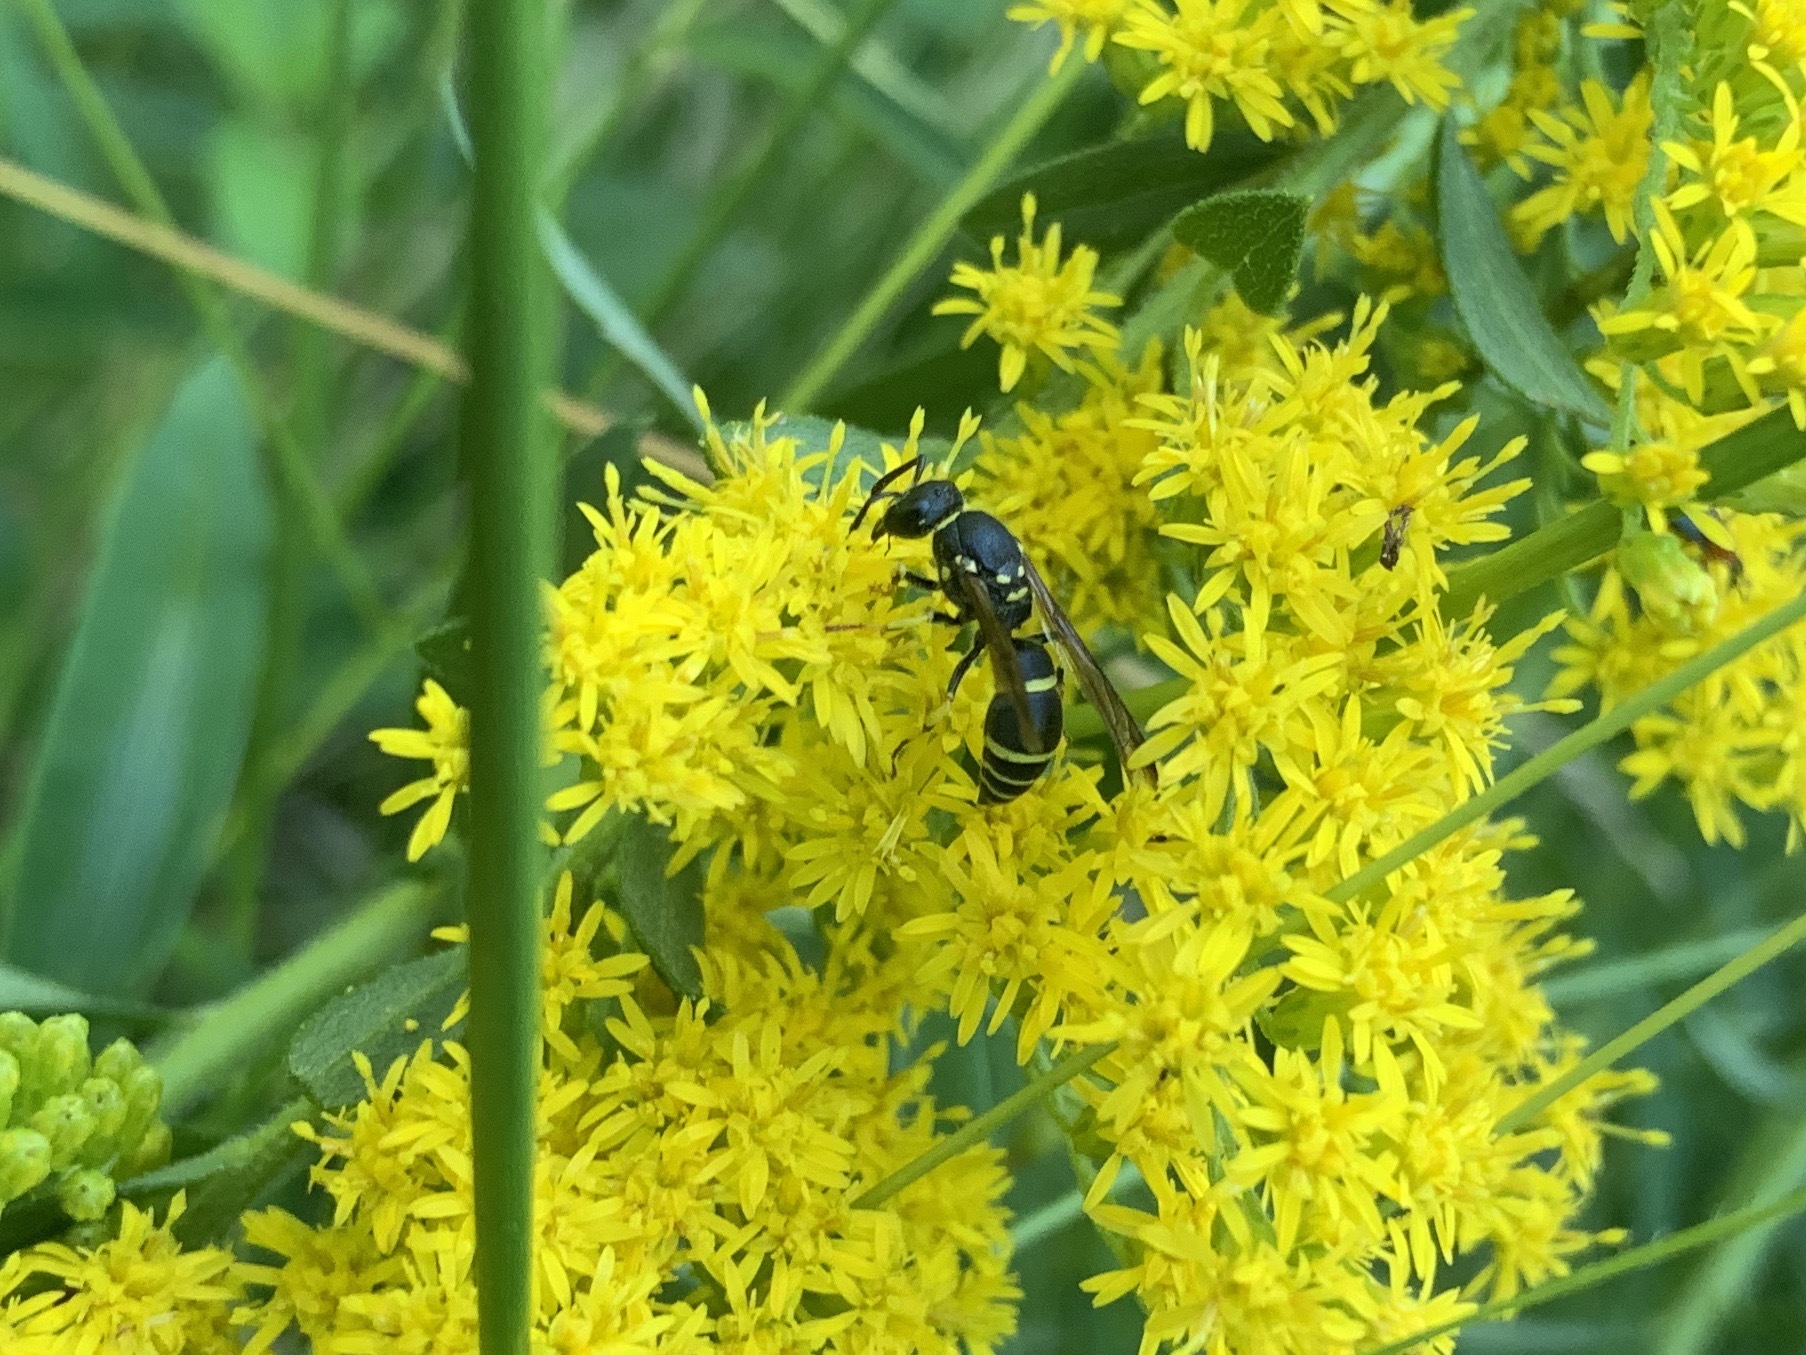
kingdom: Animalia
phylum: Arthropoda
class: Insecta
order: Hymenoptera
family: Vespidae
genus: Ancistrocerus
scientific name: Ancistrocerus adiabatus
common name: Bramble mason wasp
